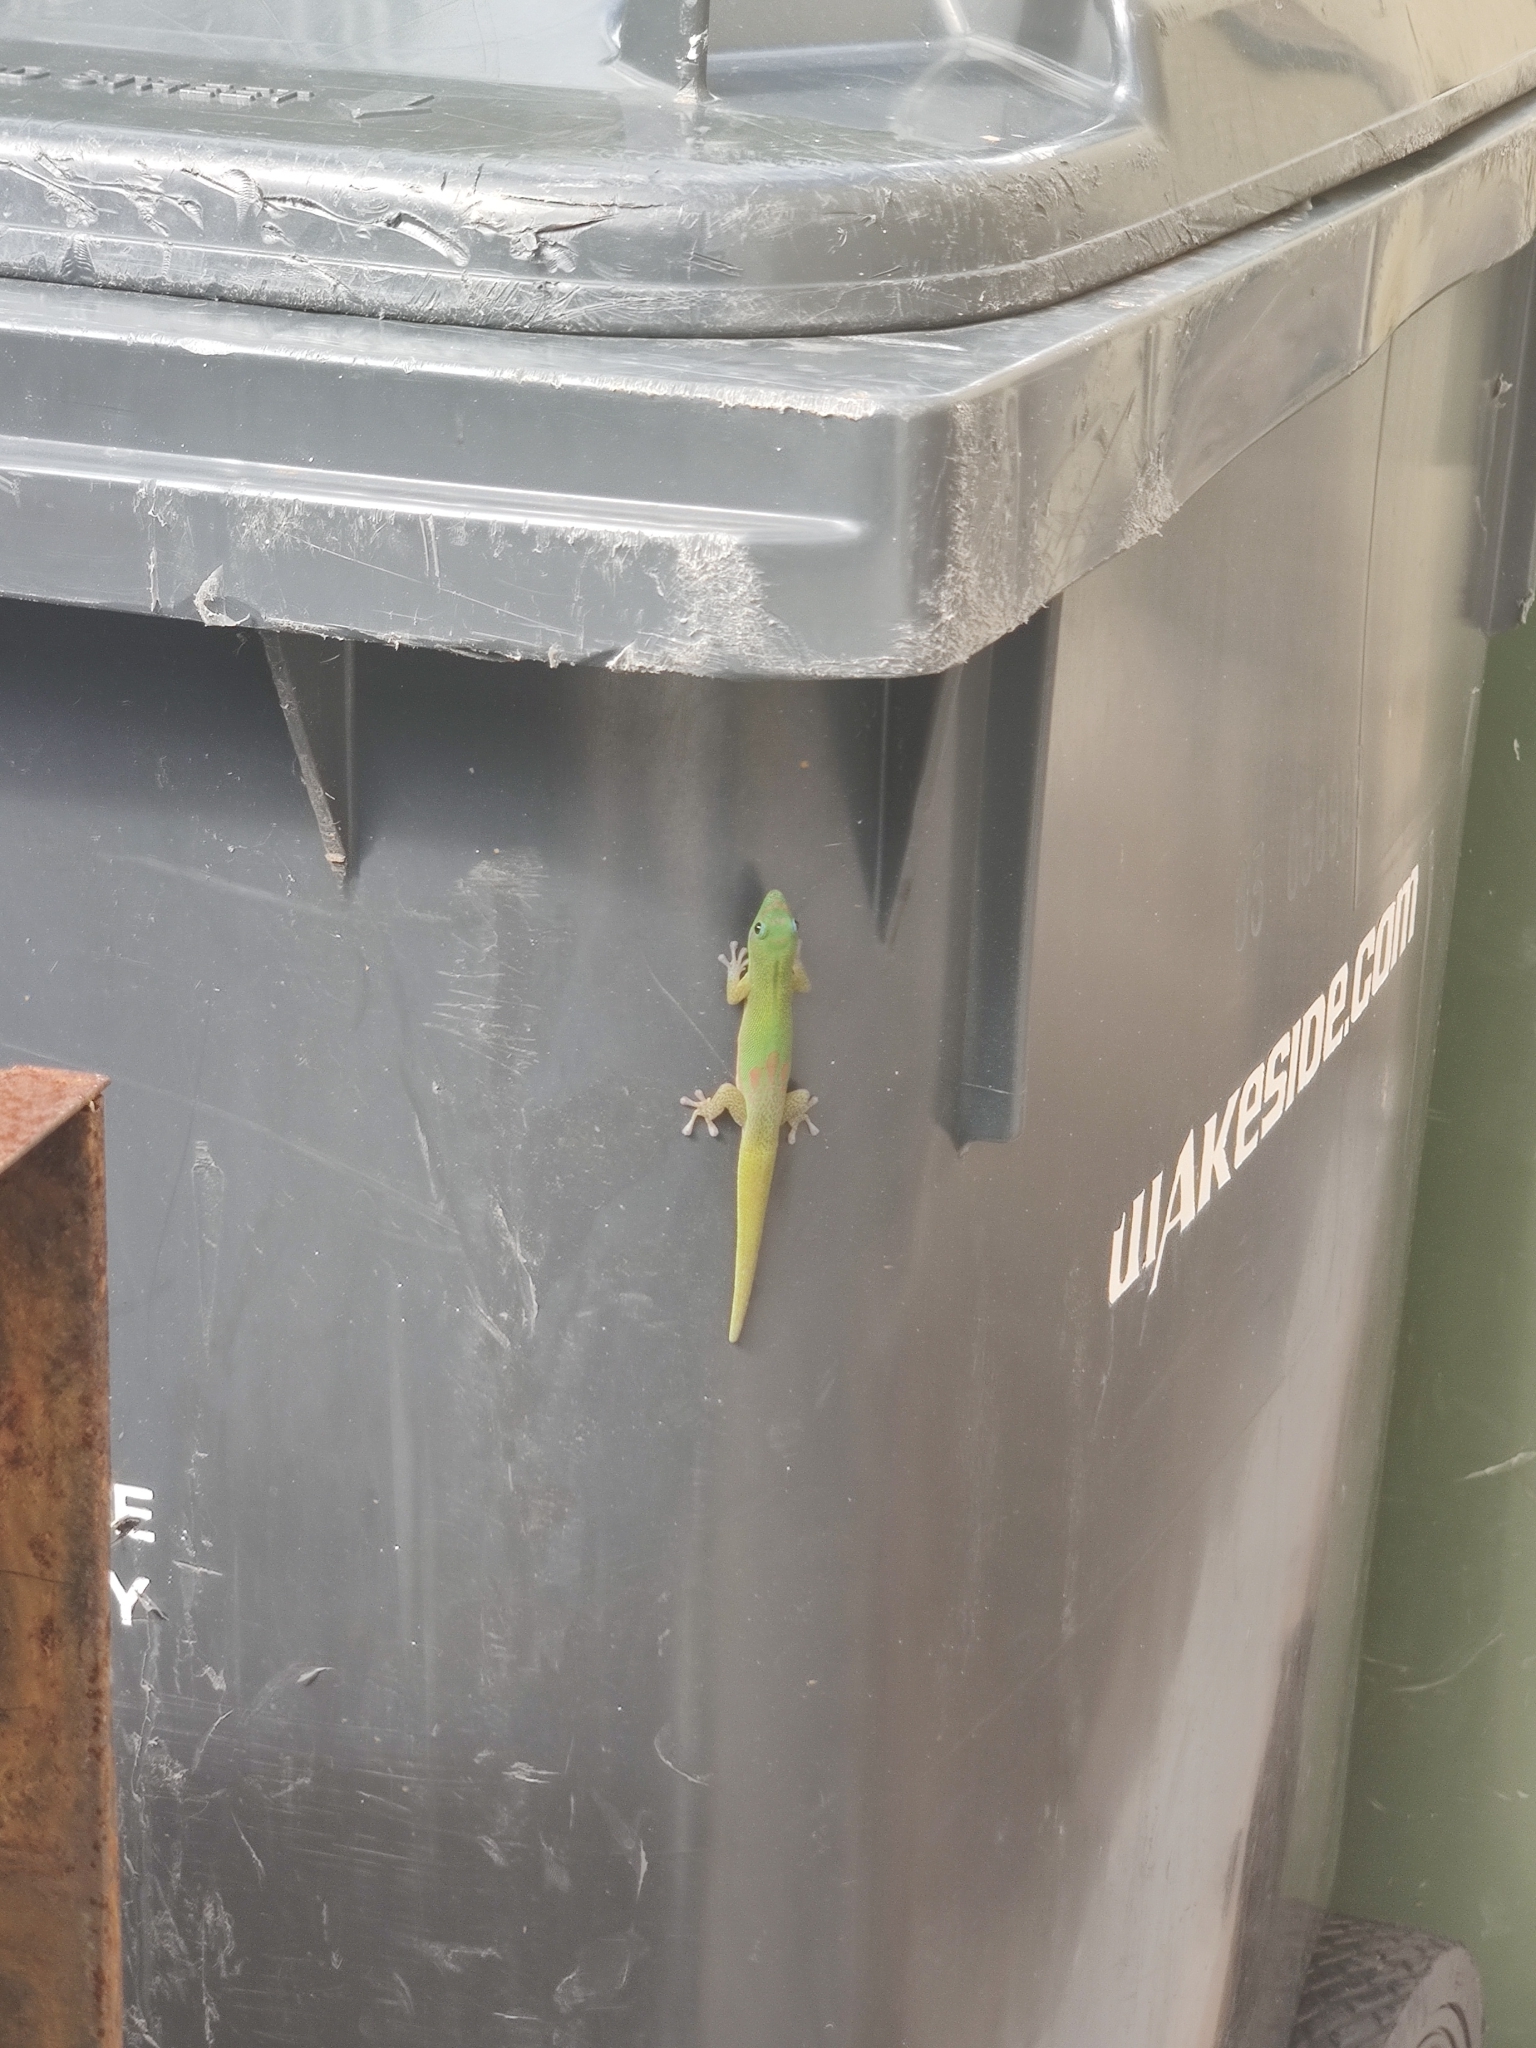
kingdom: Animalia
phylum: Chordata
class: Squamata
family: Gekkonidae
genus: Phelsuma
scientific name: Phelsuma laticauda
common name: Gold dust day gecko
